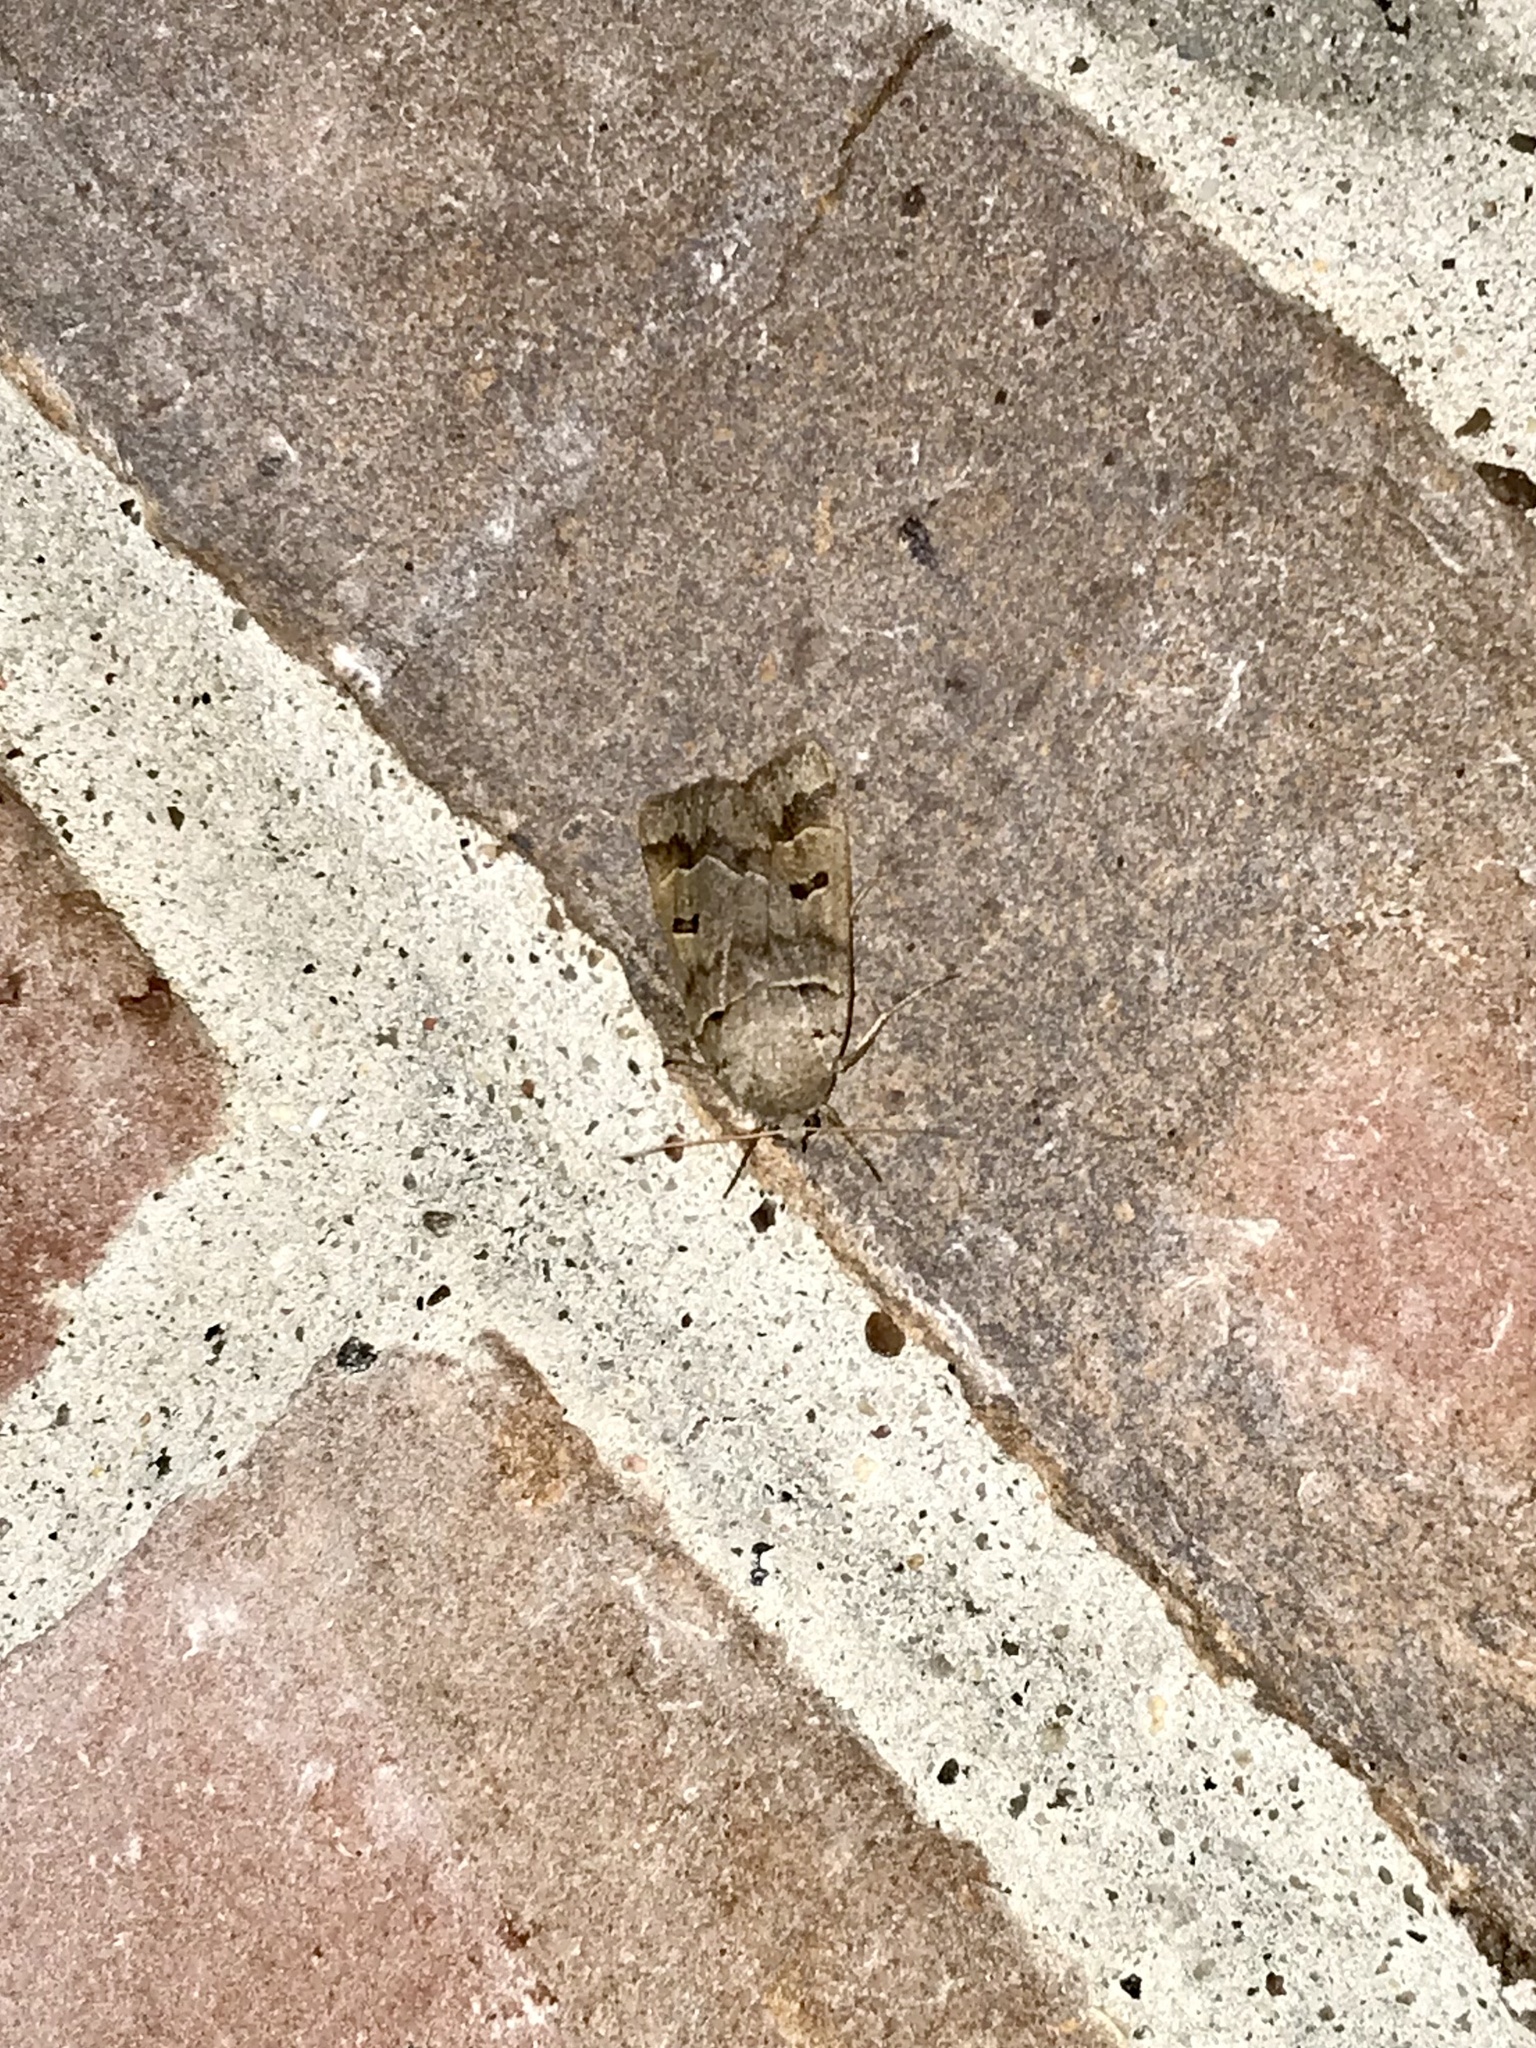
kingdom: Animalia
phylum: Arthropoda
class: Insecta
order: Lepidoptera
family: Erebidae
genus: Phoberia
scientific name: Phoberia atomaris
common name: Common oak moth
